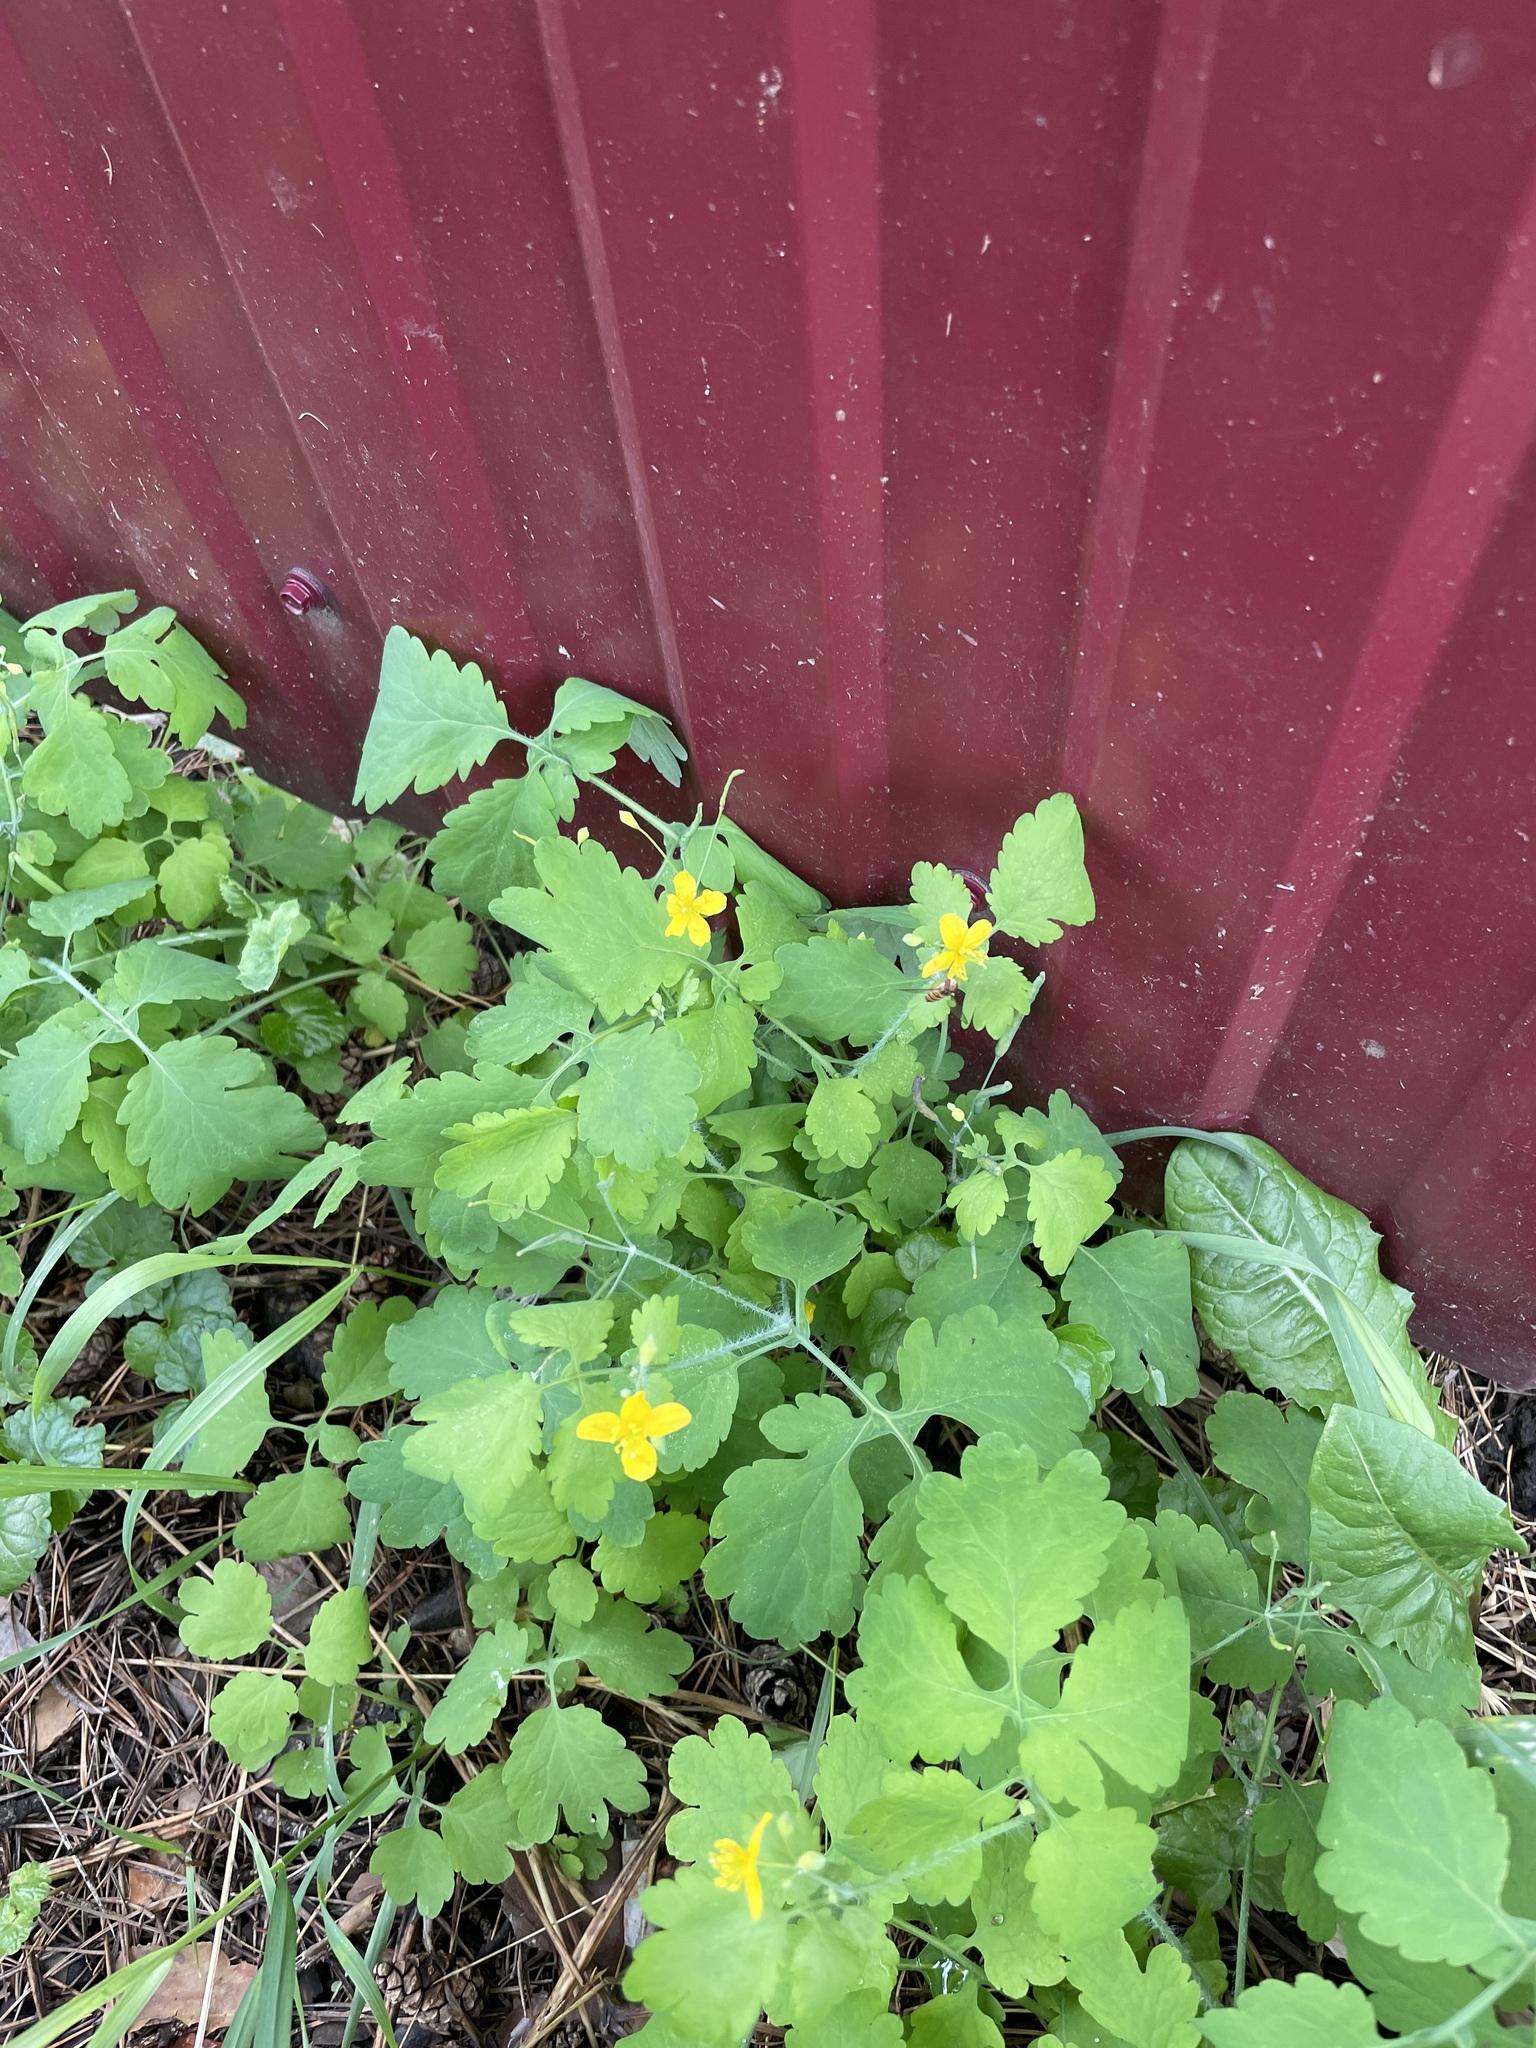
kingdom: Plantae
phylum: Tracheophyta
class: Magnoliopsida
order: Ranunculales
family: Papaveraceae
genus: Chelidonium
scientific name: Chelidonium majus
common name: Greater celandine
